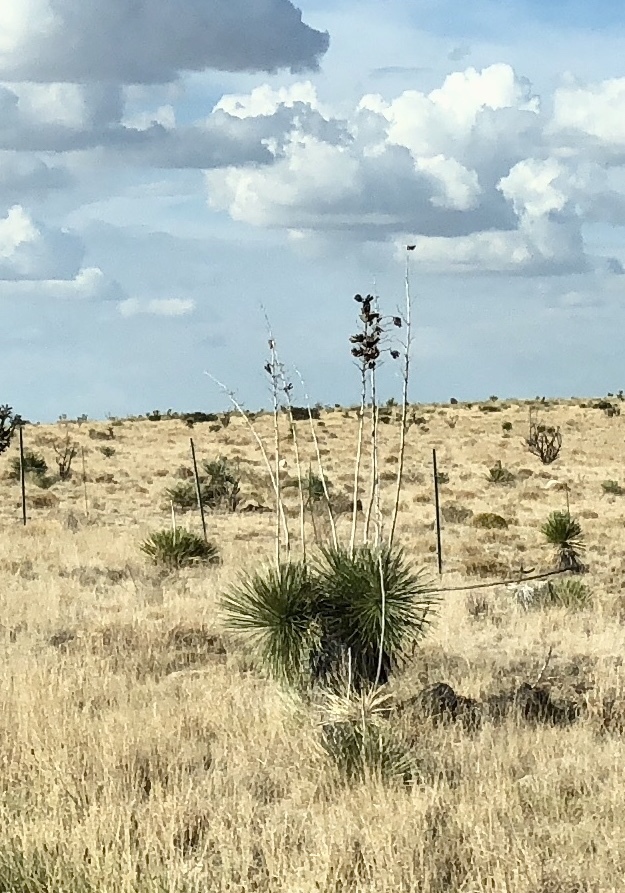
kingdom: Plantae
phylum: Tracheophyta
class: Liliopsida
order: Asparagales
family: Asparagaceae
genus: Yucca
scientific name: Yucca elata
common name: Palmella
